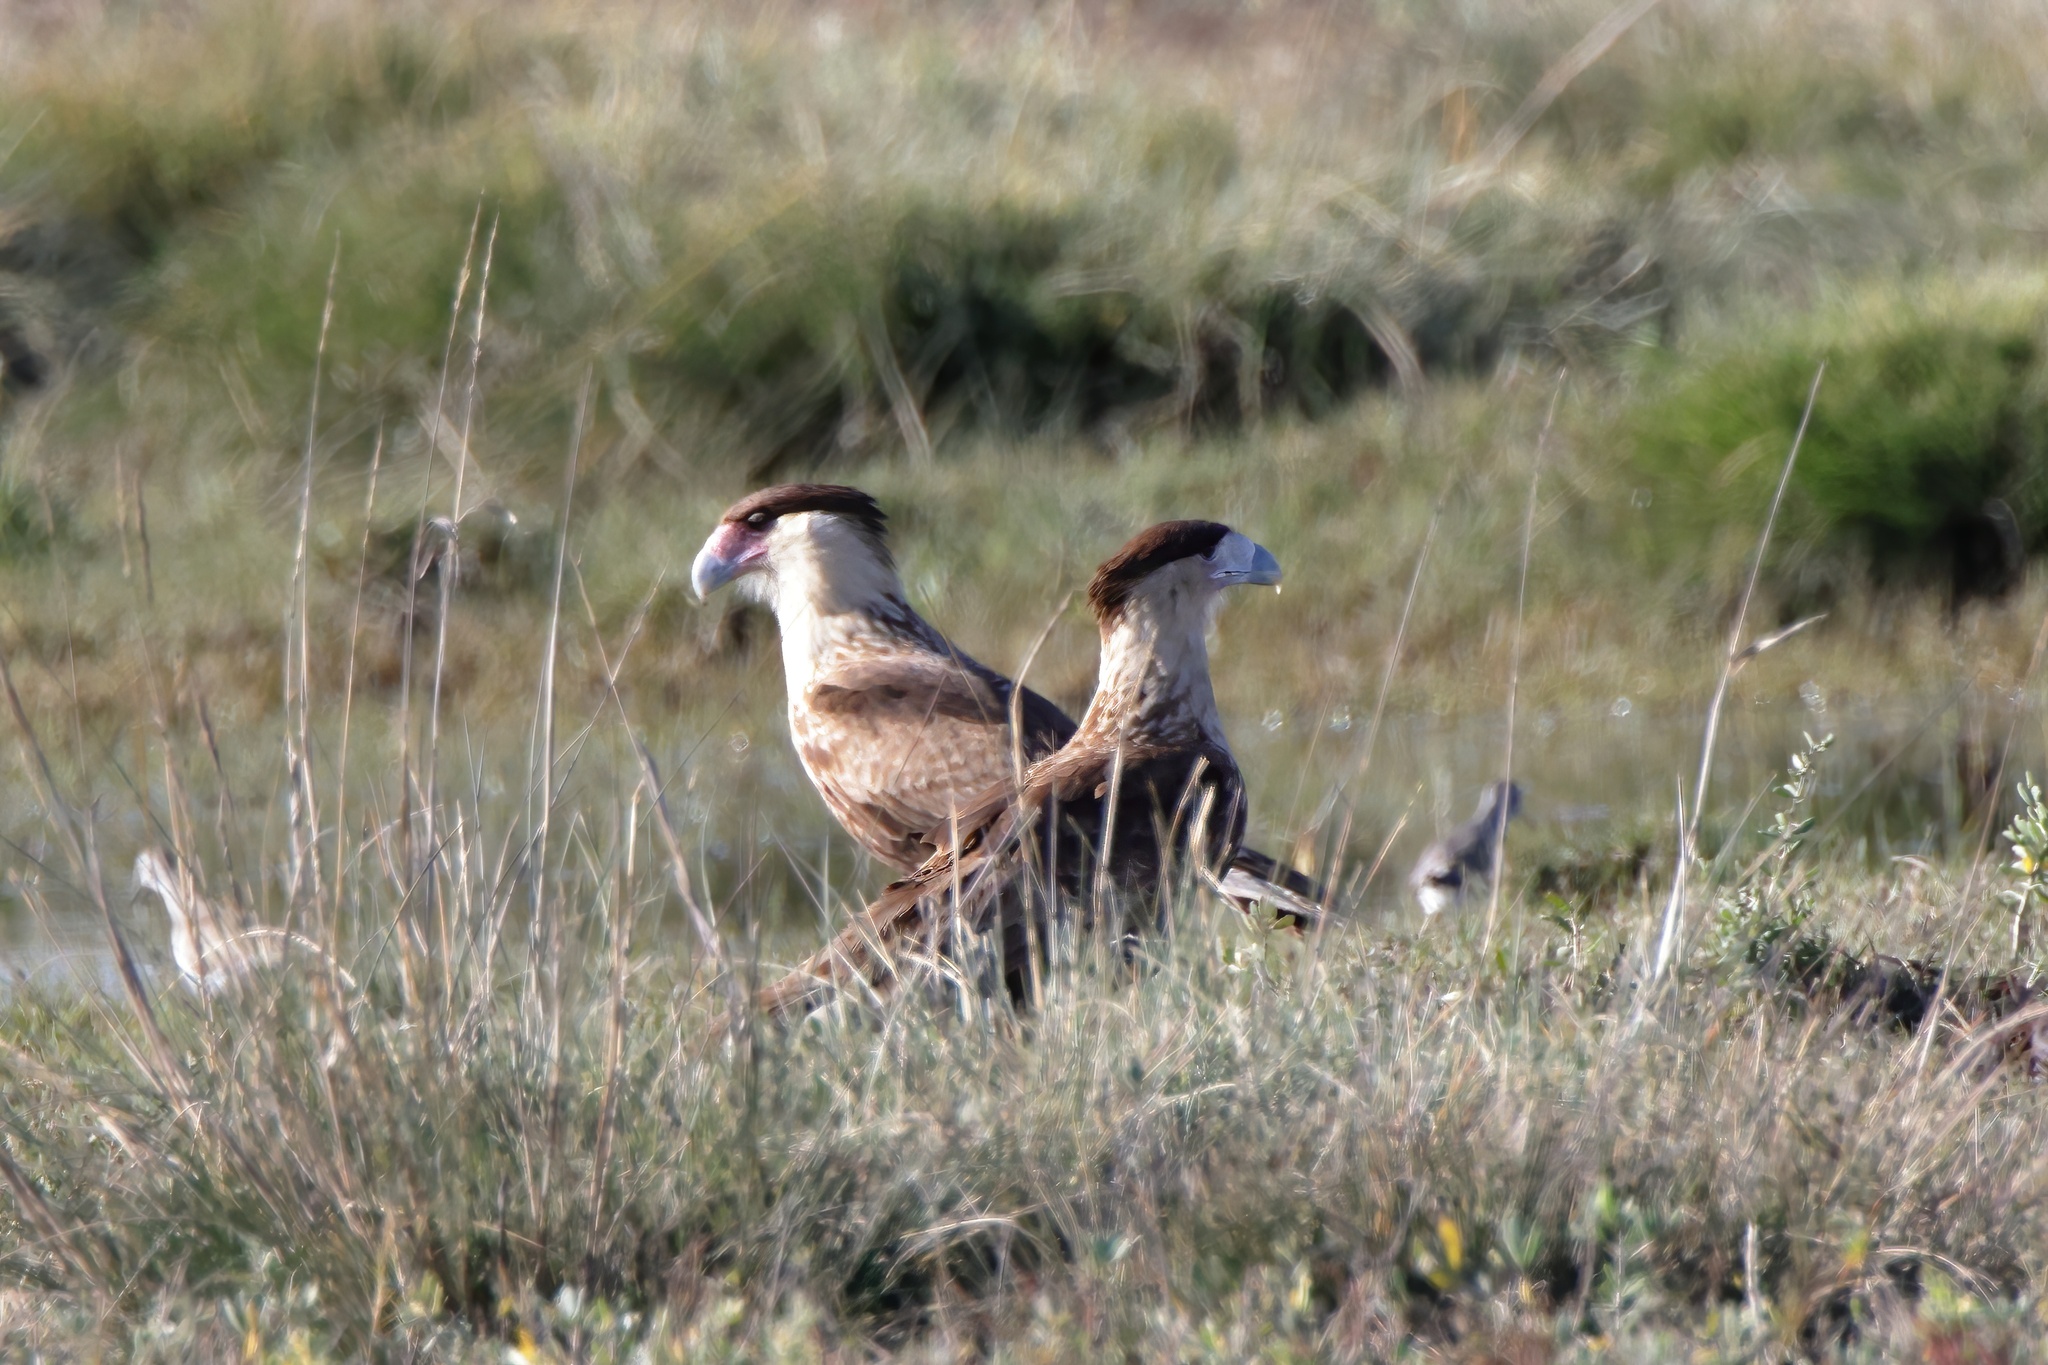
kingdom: Animalia
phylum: Chordata
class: Aves
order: Falconiformes
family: Falconidae
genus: Caracara
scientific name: Caracara plancus
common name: Southern caracara
